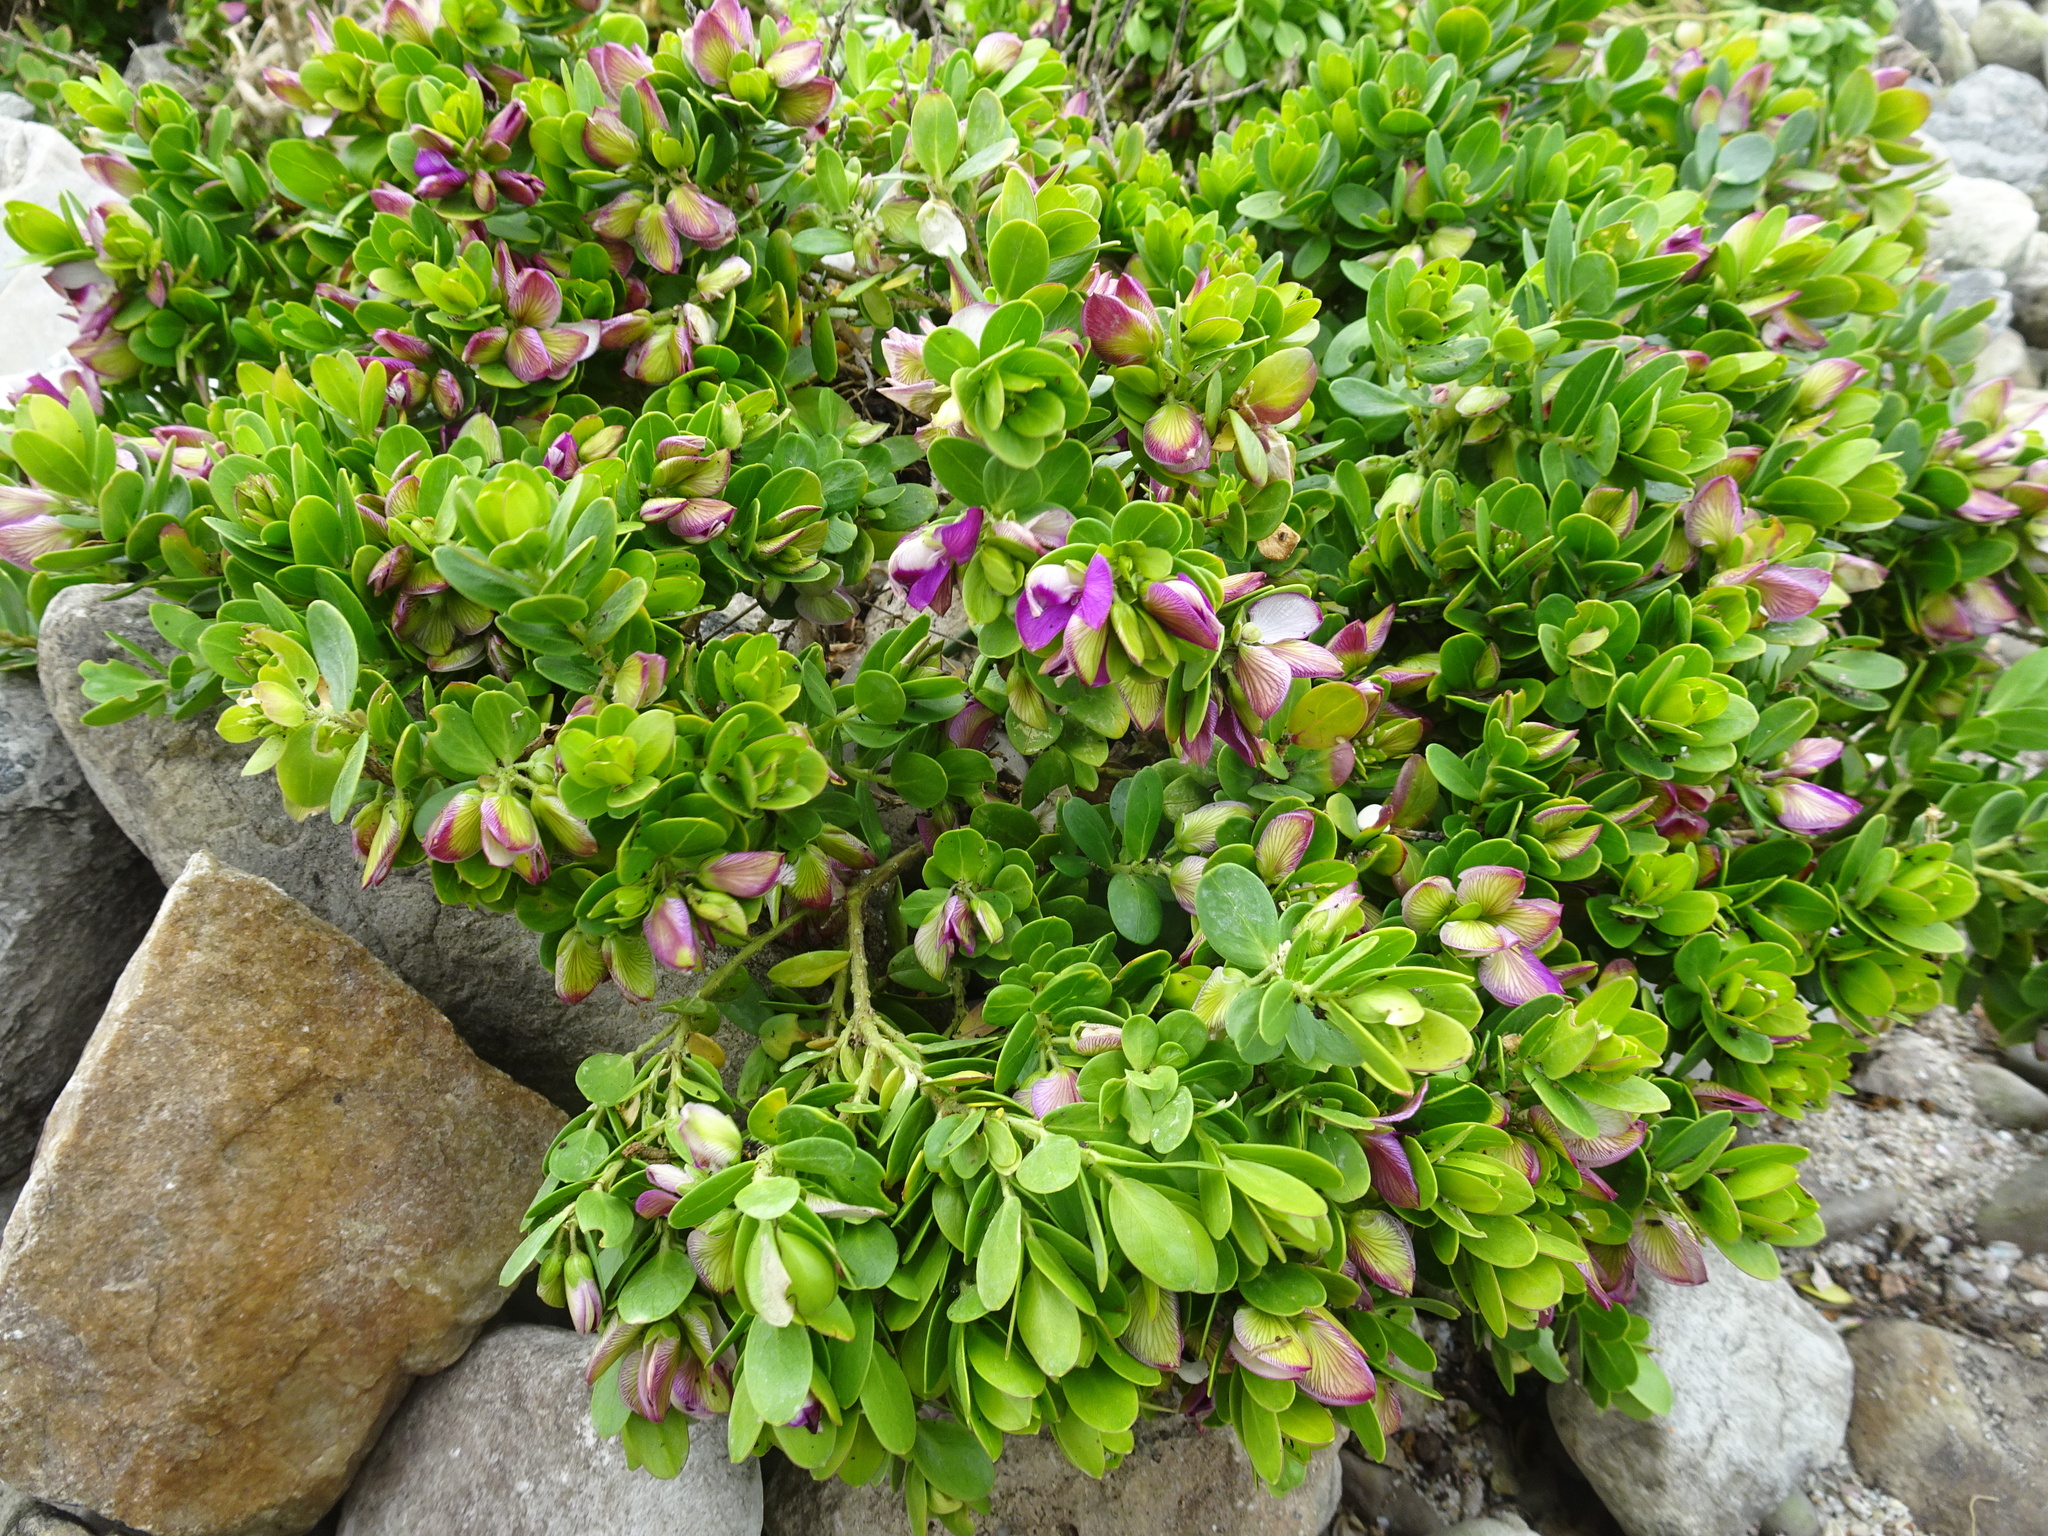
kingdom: Plantae
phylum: Tracheophyta
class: Magnoliopsida
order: Fabales
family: Polygalaceae
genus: Polygala
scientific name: Polygala myrtifolia
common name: Myrtle-leaf milkwort
